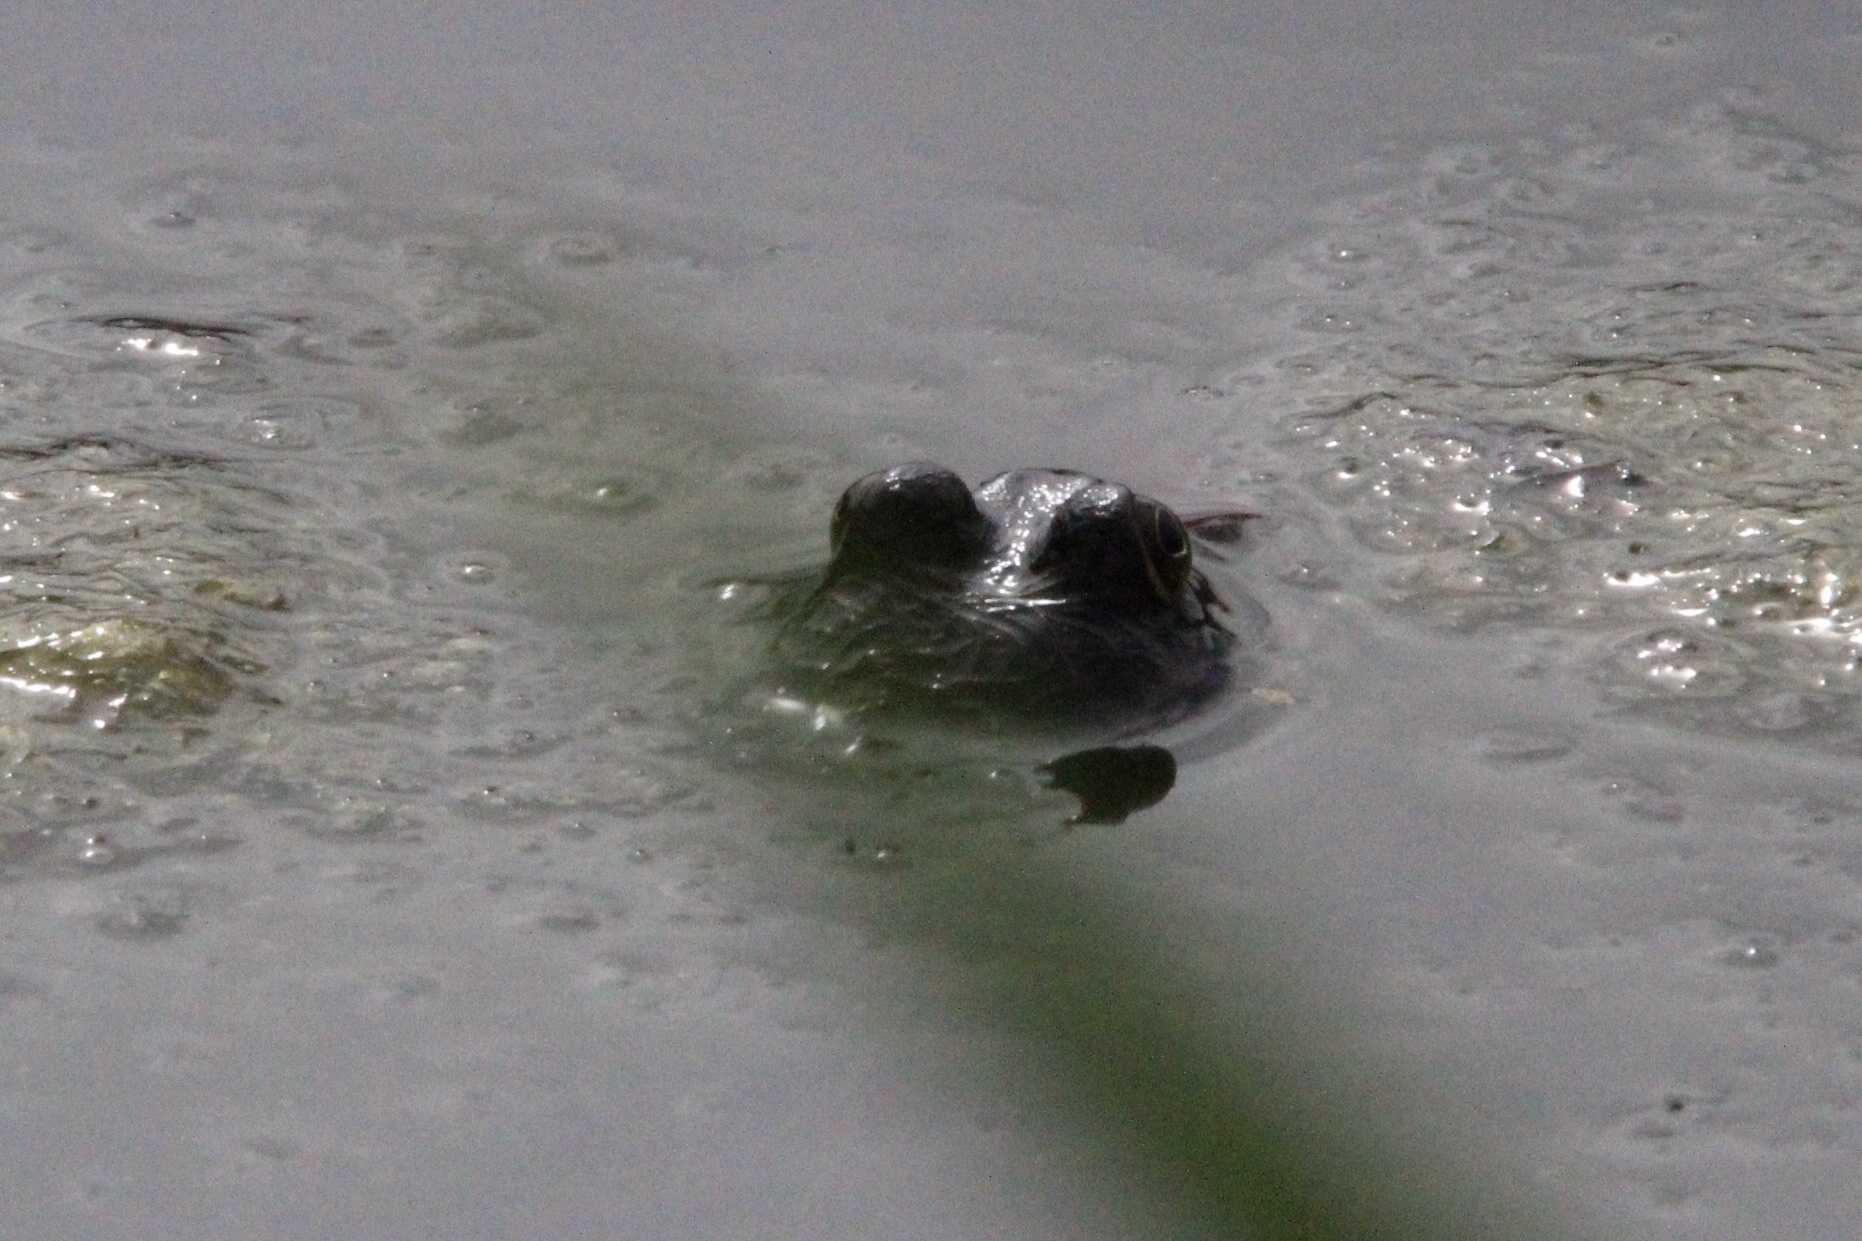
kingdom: Animalia
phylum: Chordata
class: Amphibia
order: Anura
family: Ranidae
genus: Lithobates
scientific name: Lithobates catesbeianus
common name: American bullfrog
